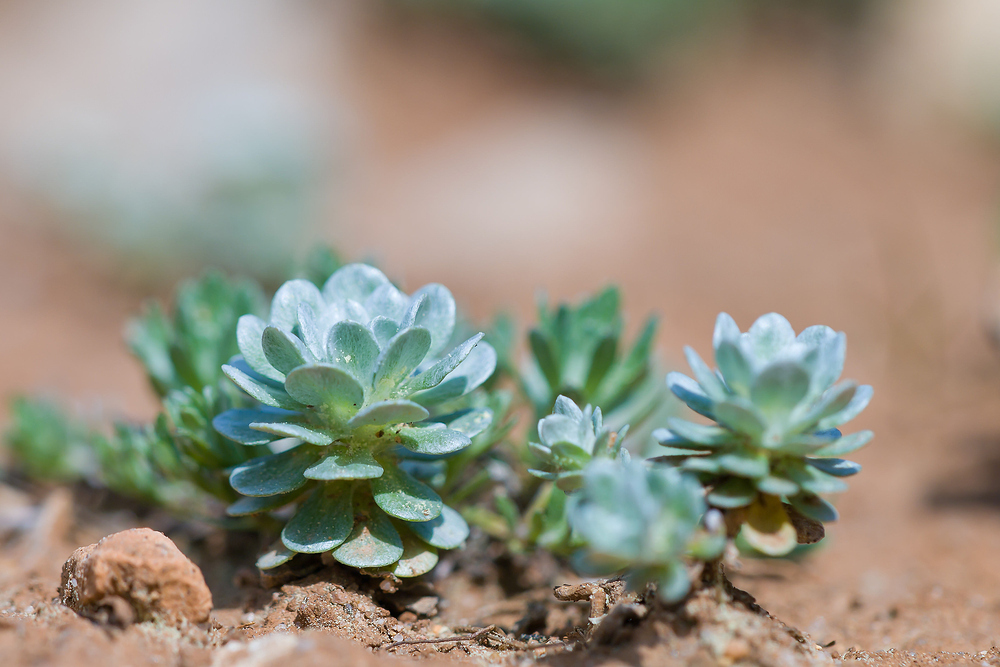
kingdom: Plantae
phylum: Tracheophyta
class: Magnoliopsida
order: Asterales
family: Asteraceae
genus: Filago
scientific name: Filago pygmaea
